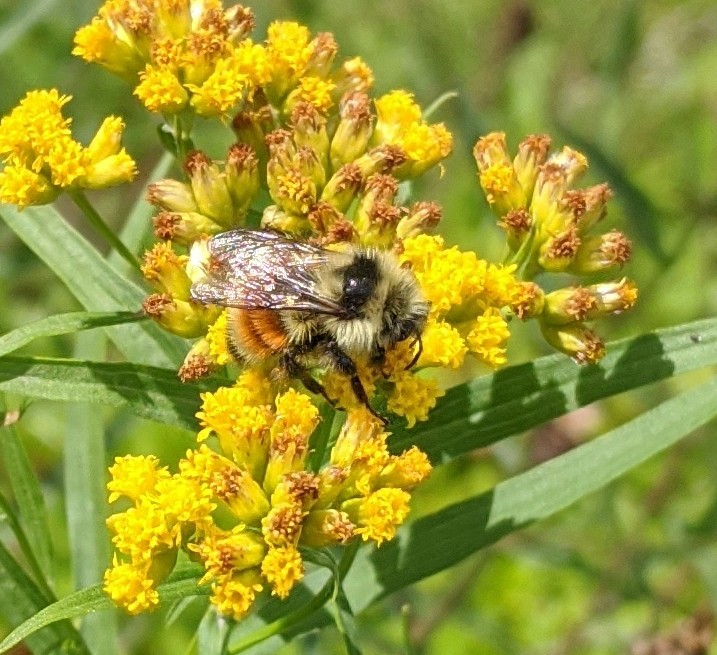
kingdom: Animalia
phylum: Arthropoda
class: Insecta
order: Hymenoptera
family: Apidae
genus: Bombus
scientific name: Bombus ternarius
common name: Tri-colored bumble bee
